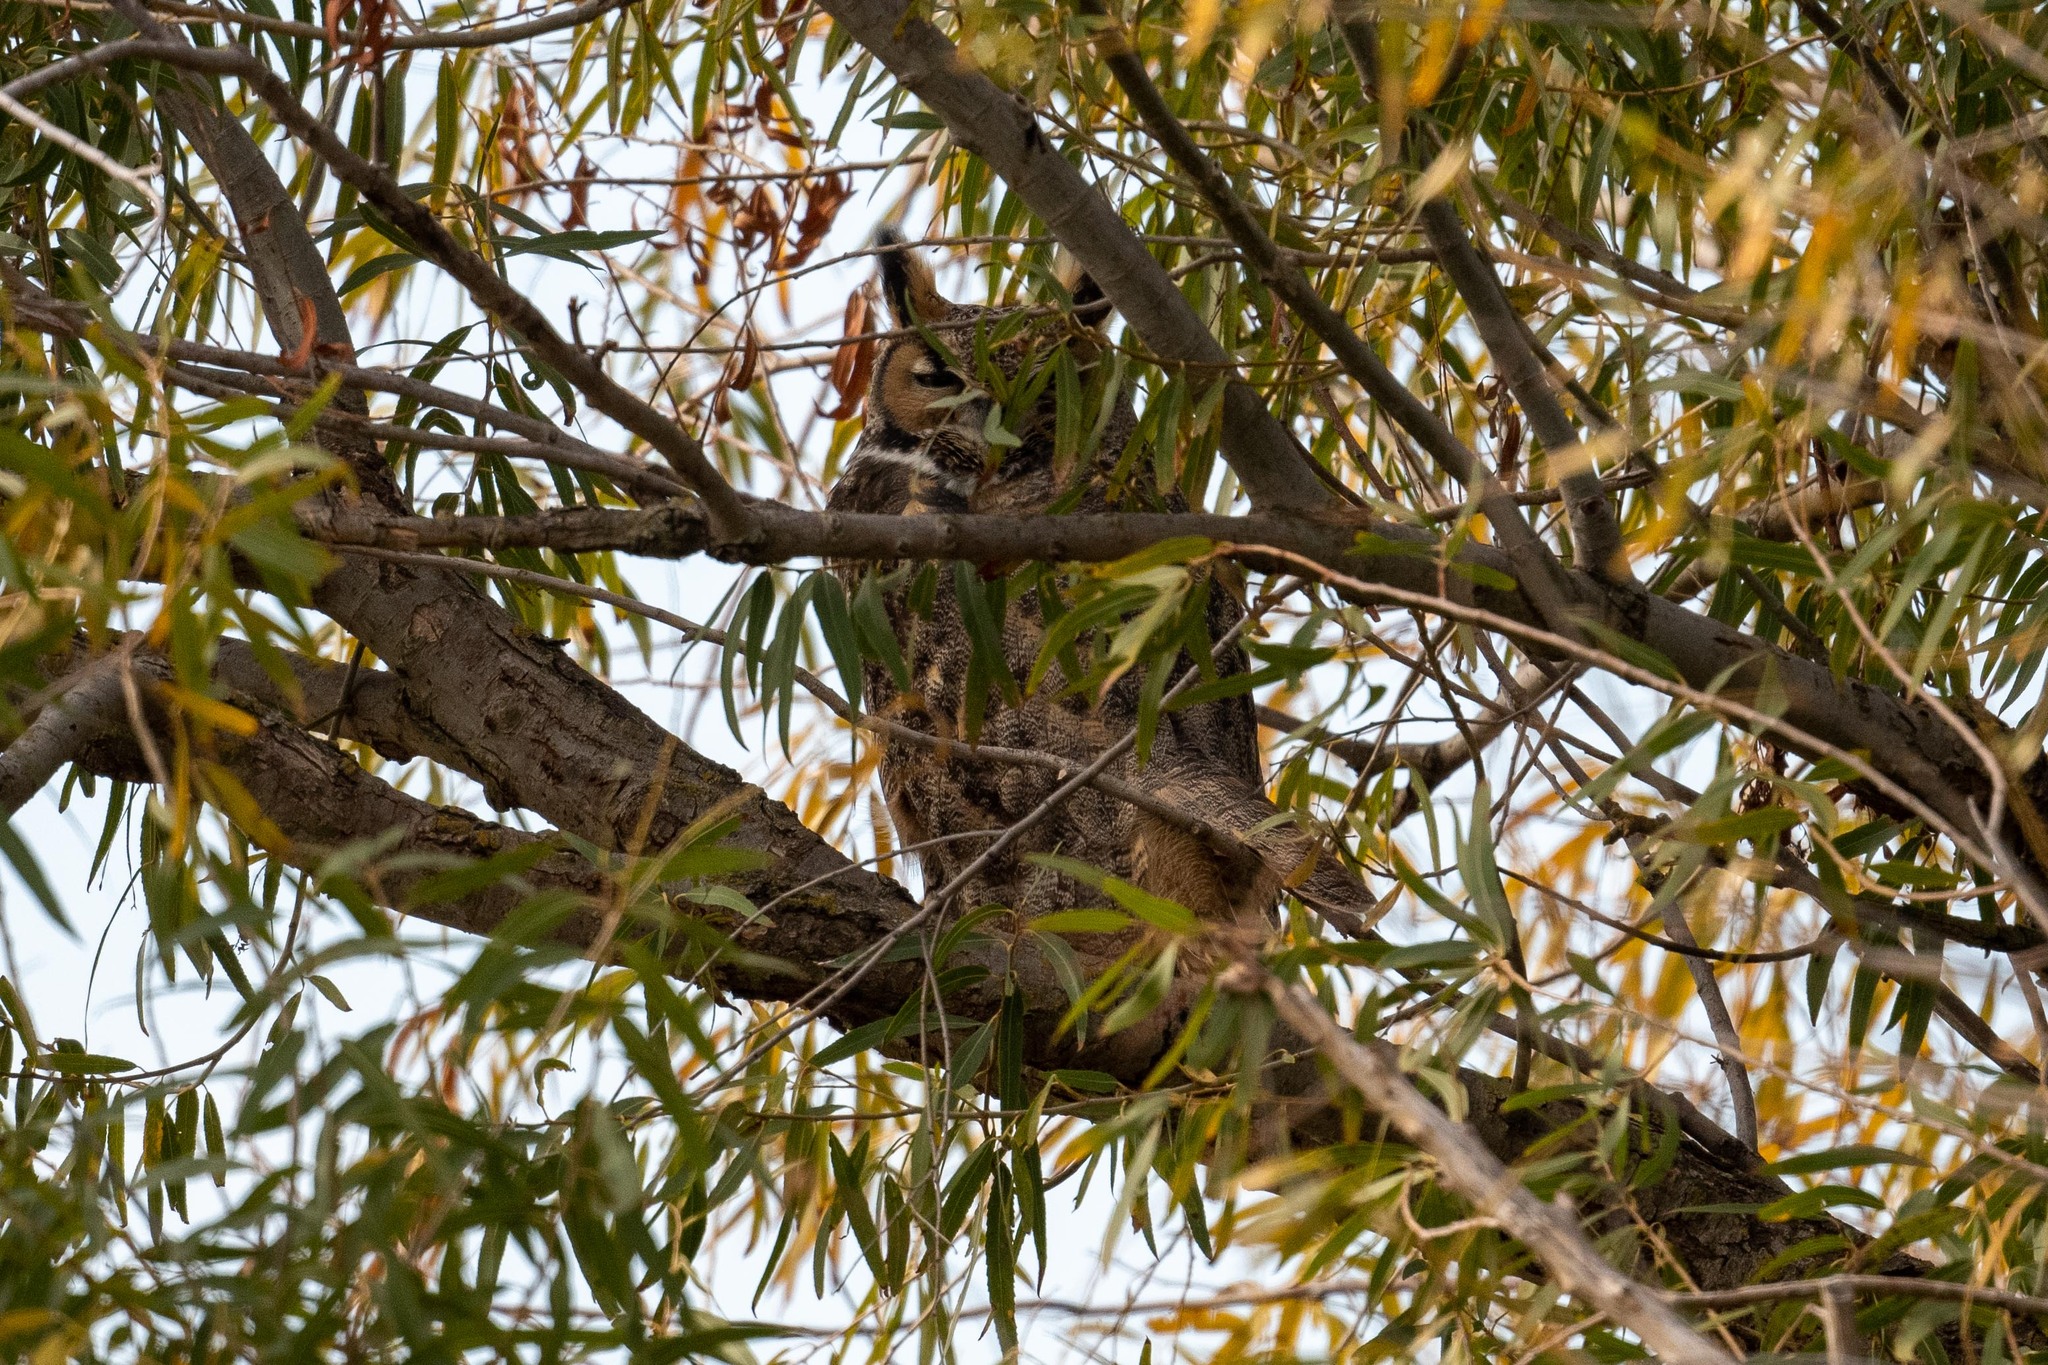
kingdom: Animalia
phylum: Chordata
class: Aves
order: Strigiformes
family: Strigidae
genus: Bubo
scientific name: Bubo virginianus
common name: Great horned owl
